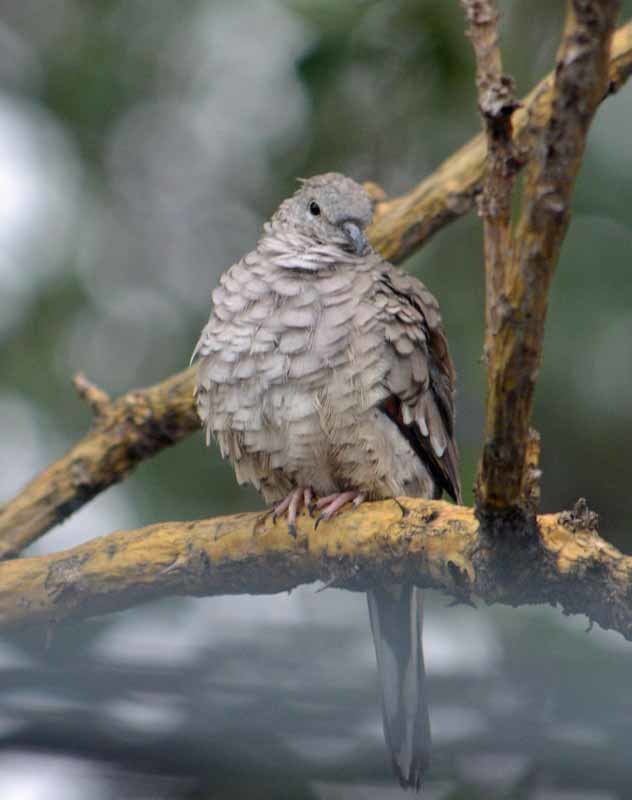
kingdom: Animalia
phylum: Chordata
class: Aves
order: Columbiformes
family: Columbidae
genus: Columbina
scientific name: Columbina inca
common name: Inca dove
